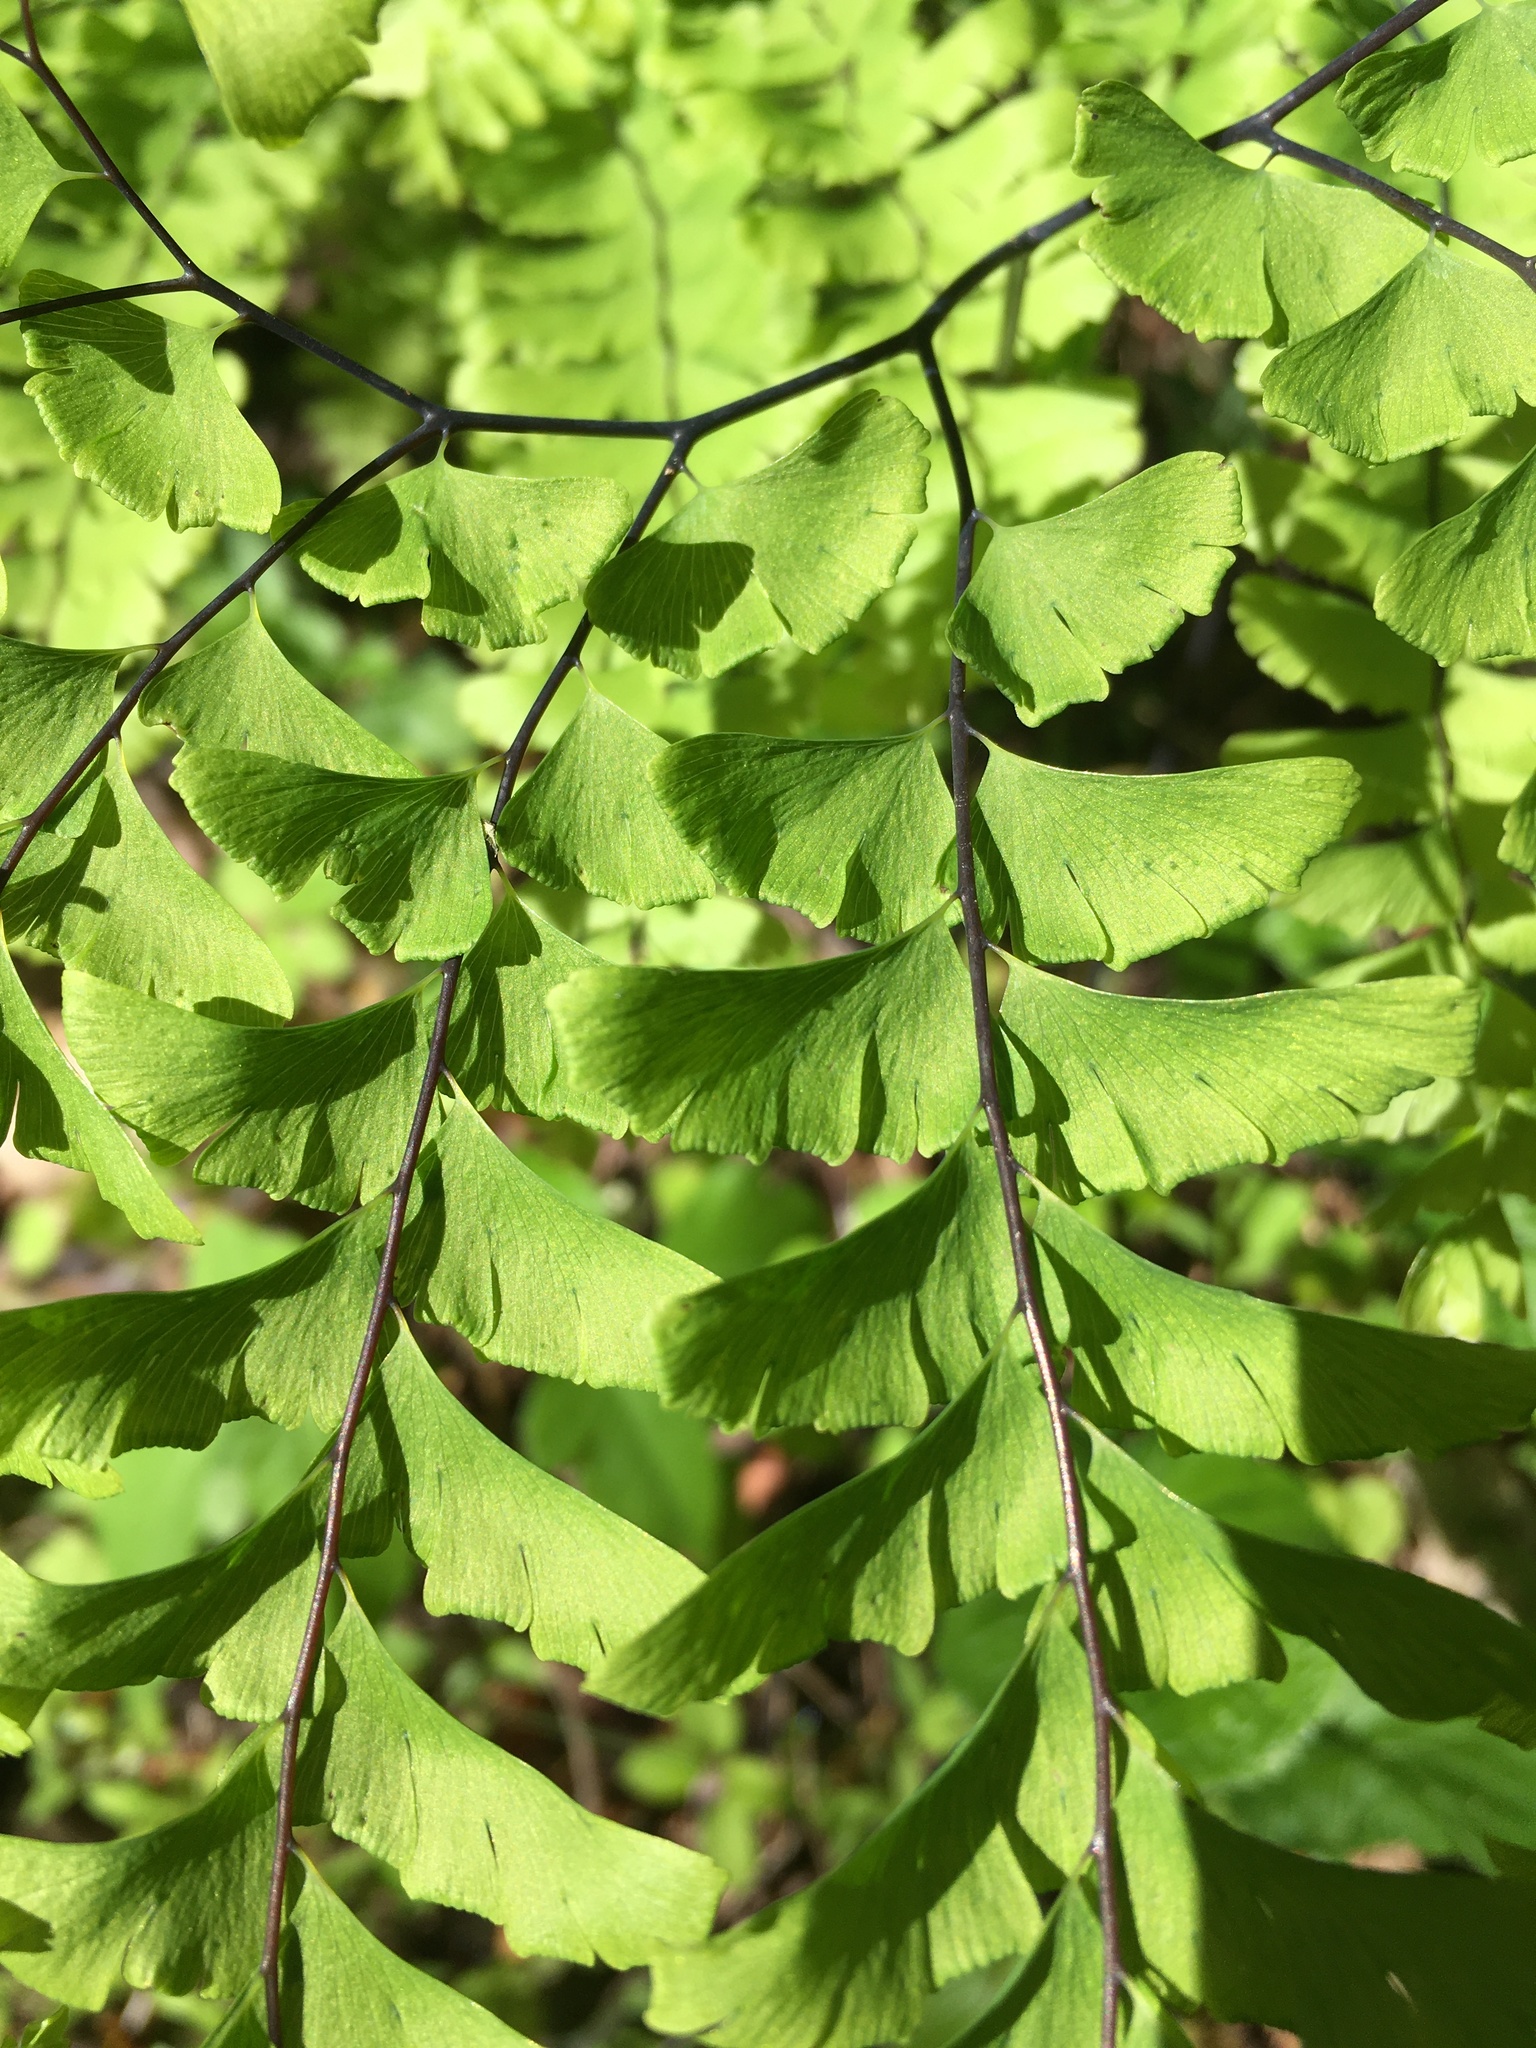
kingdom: Plantae
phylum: Tracheophyta
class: Polypodiopsida
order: Polypodiales
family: Pteridaceae
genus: Adiantum
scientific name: Adiantum pedatum
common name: Five-finger fern
